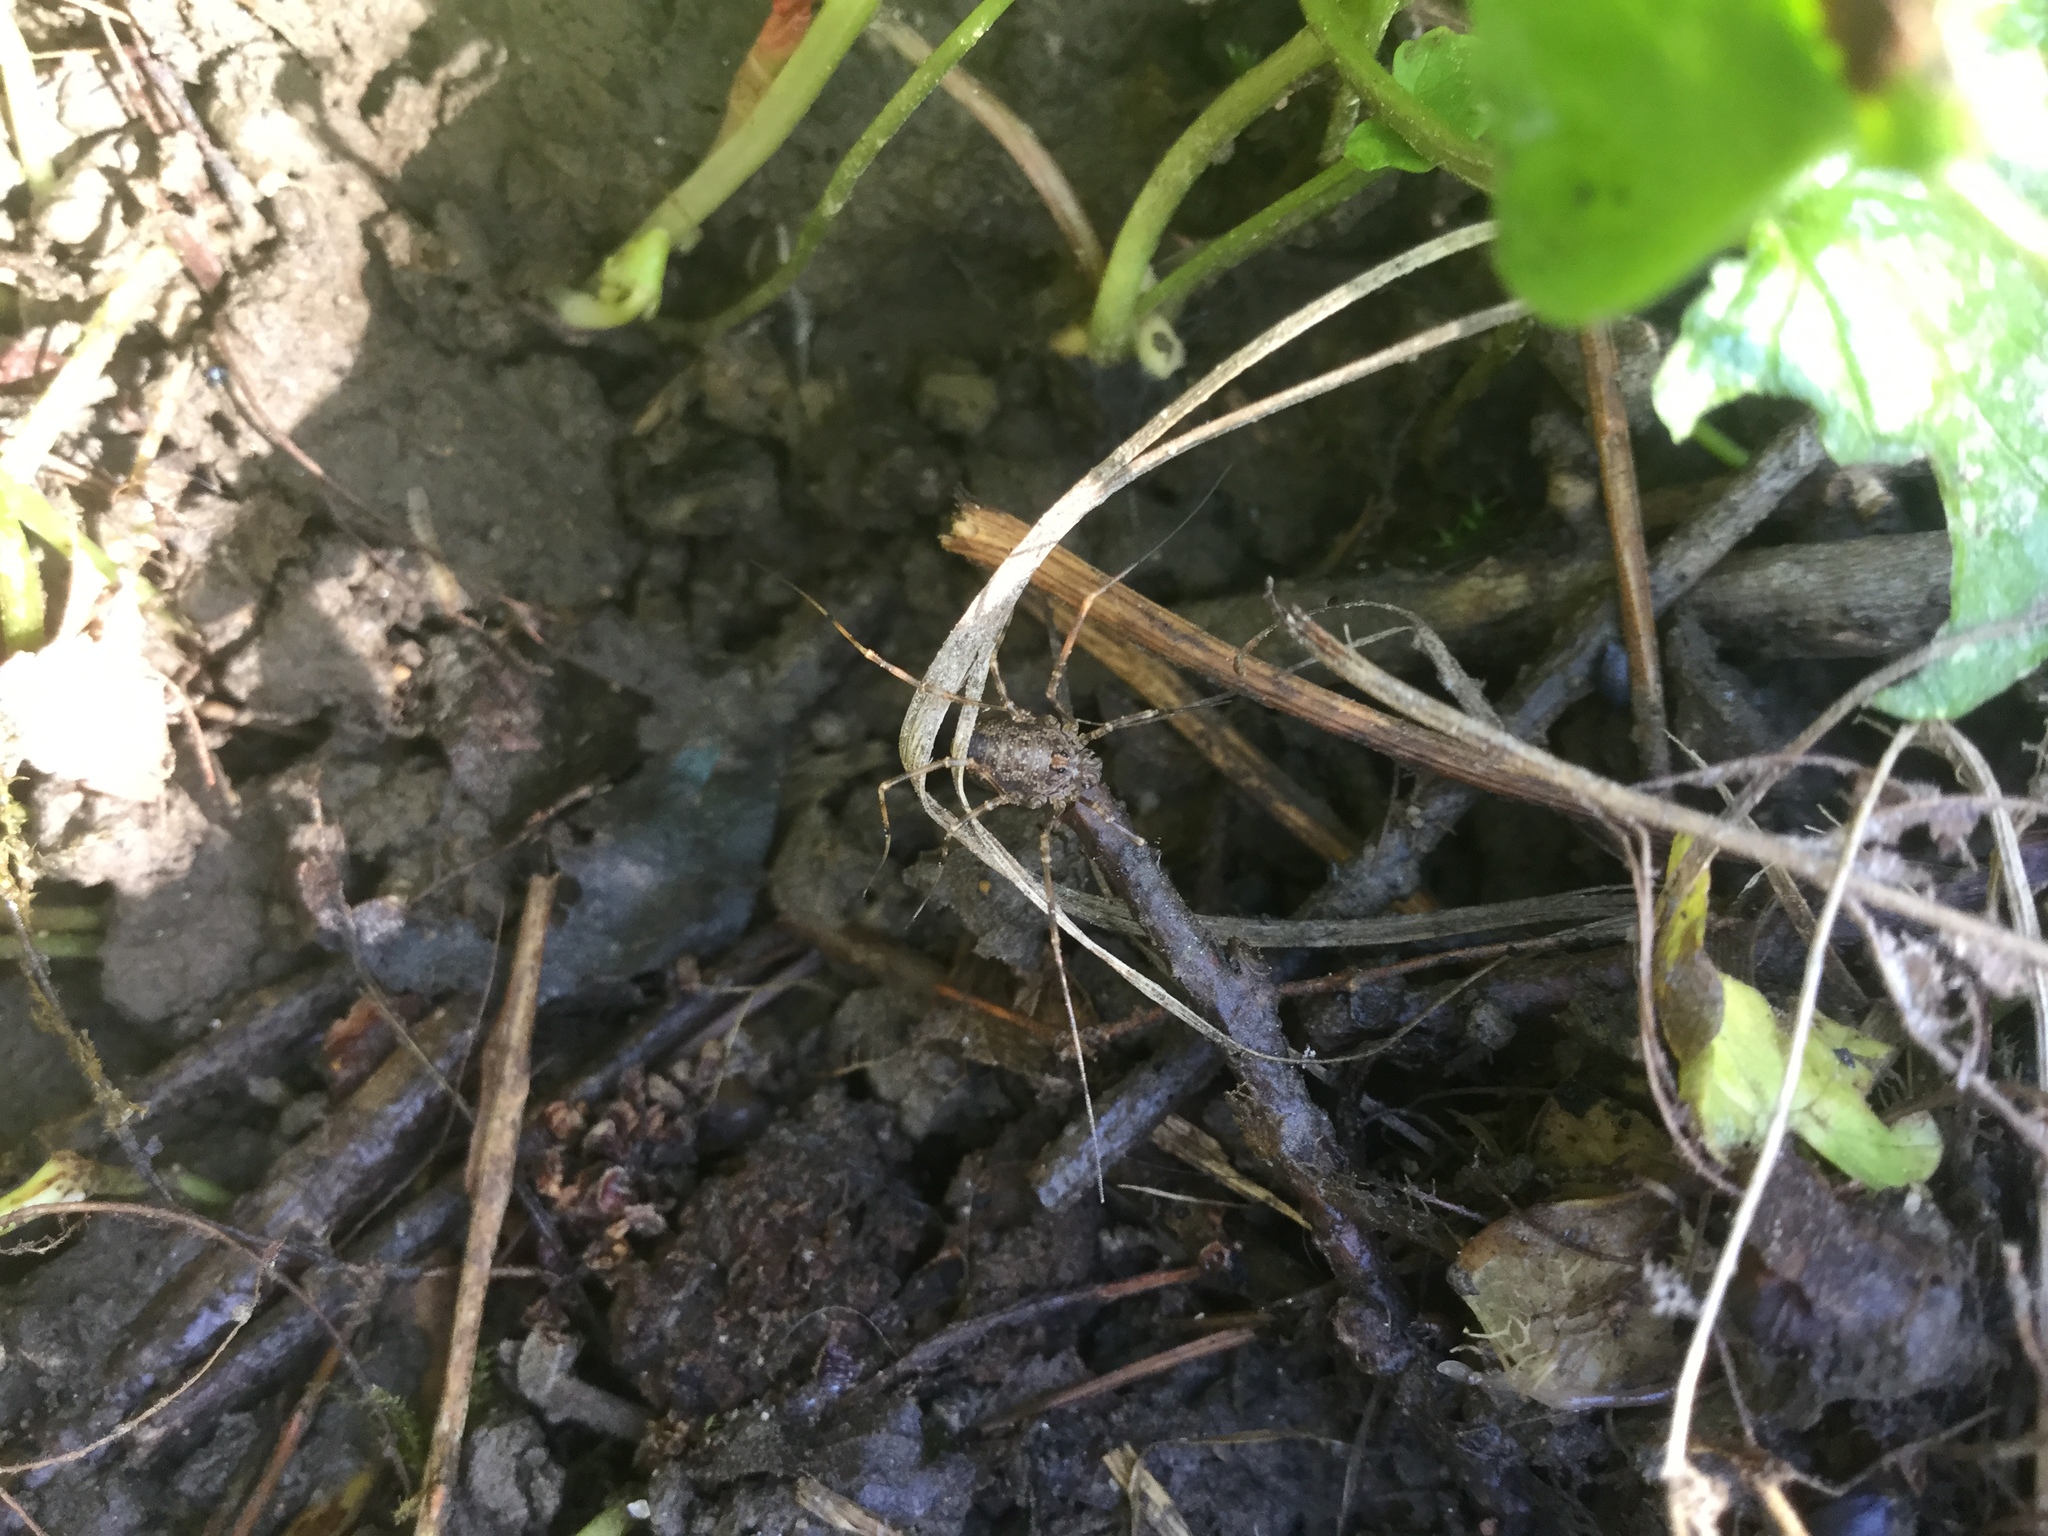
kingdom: Animalia
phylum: Arthropoda
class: Arachnida
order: Opiliones
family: Phalangiidae
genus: Rilaena
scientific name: Rilaena triangularis
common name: Spring harvestman
